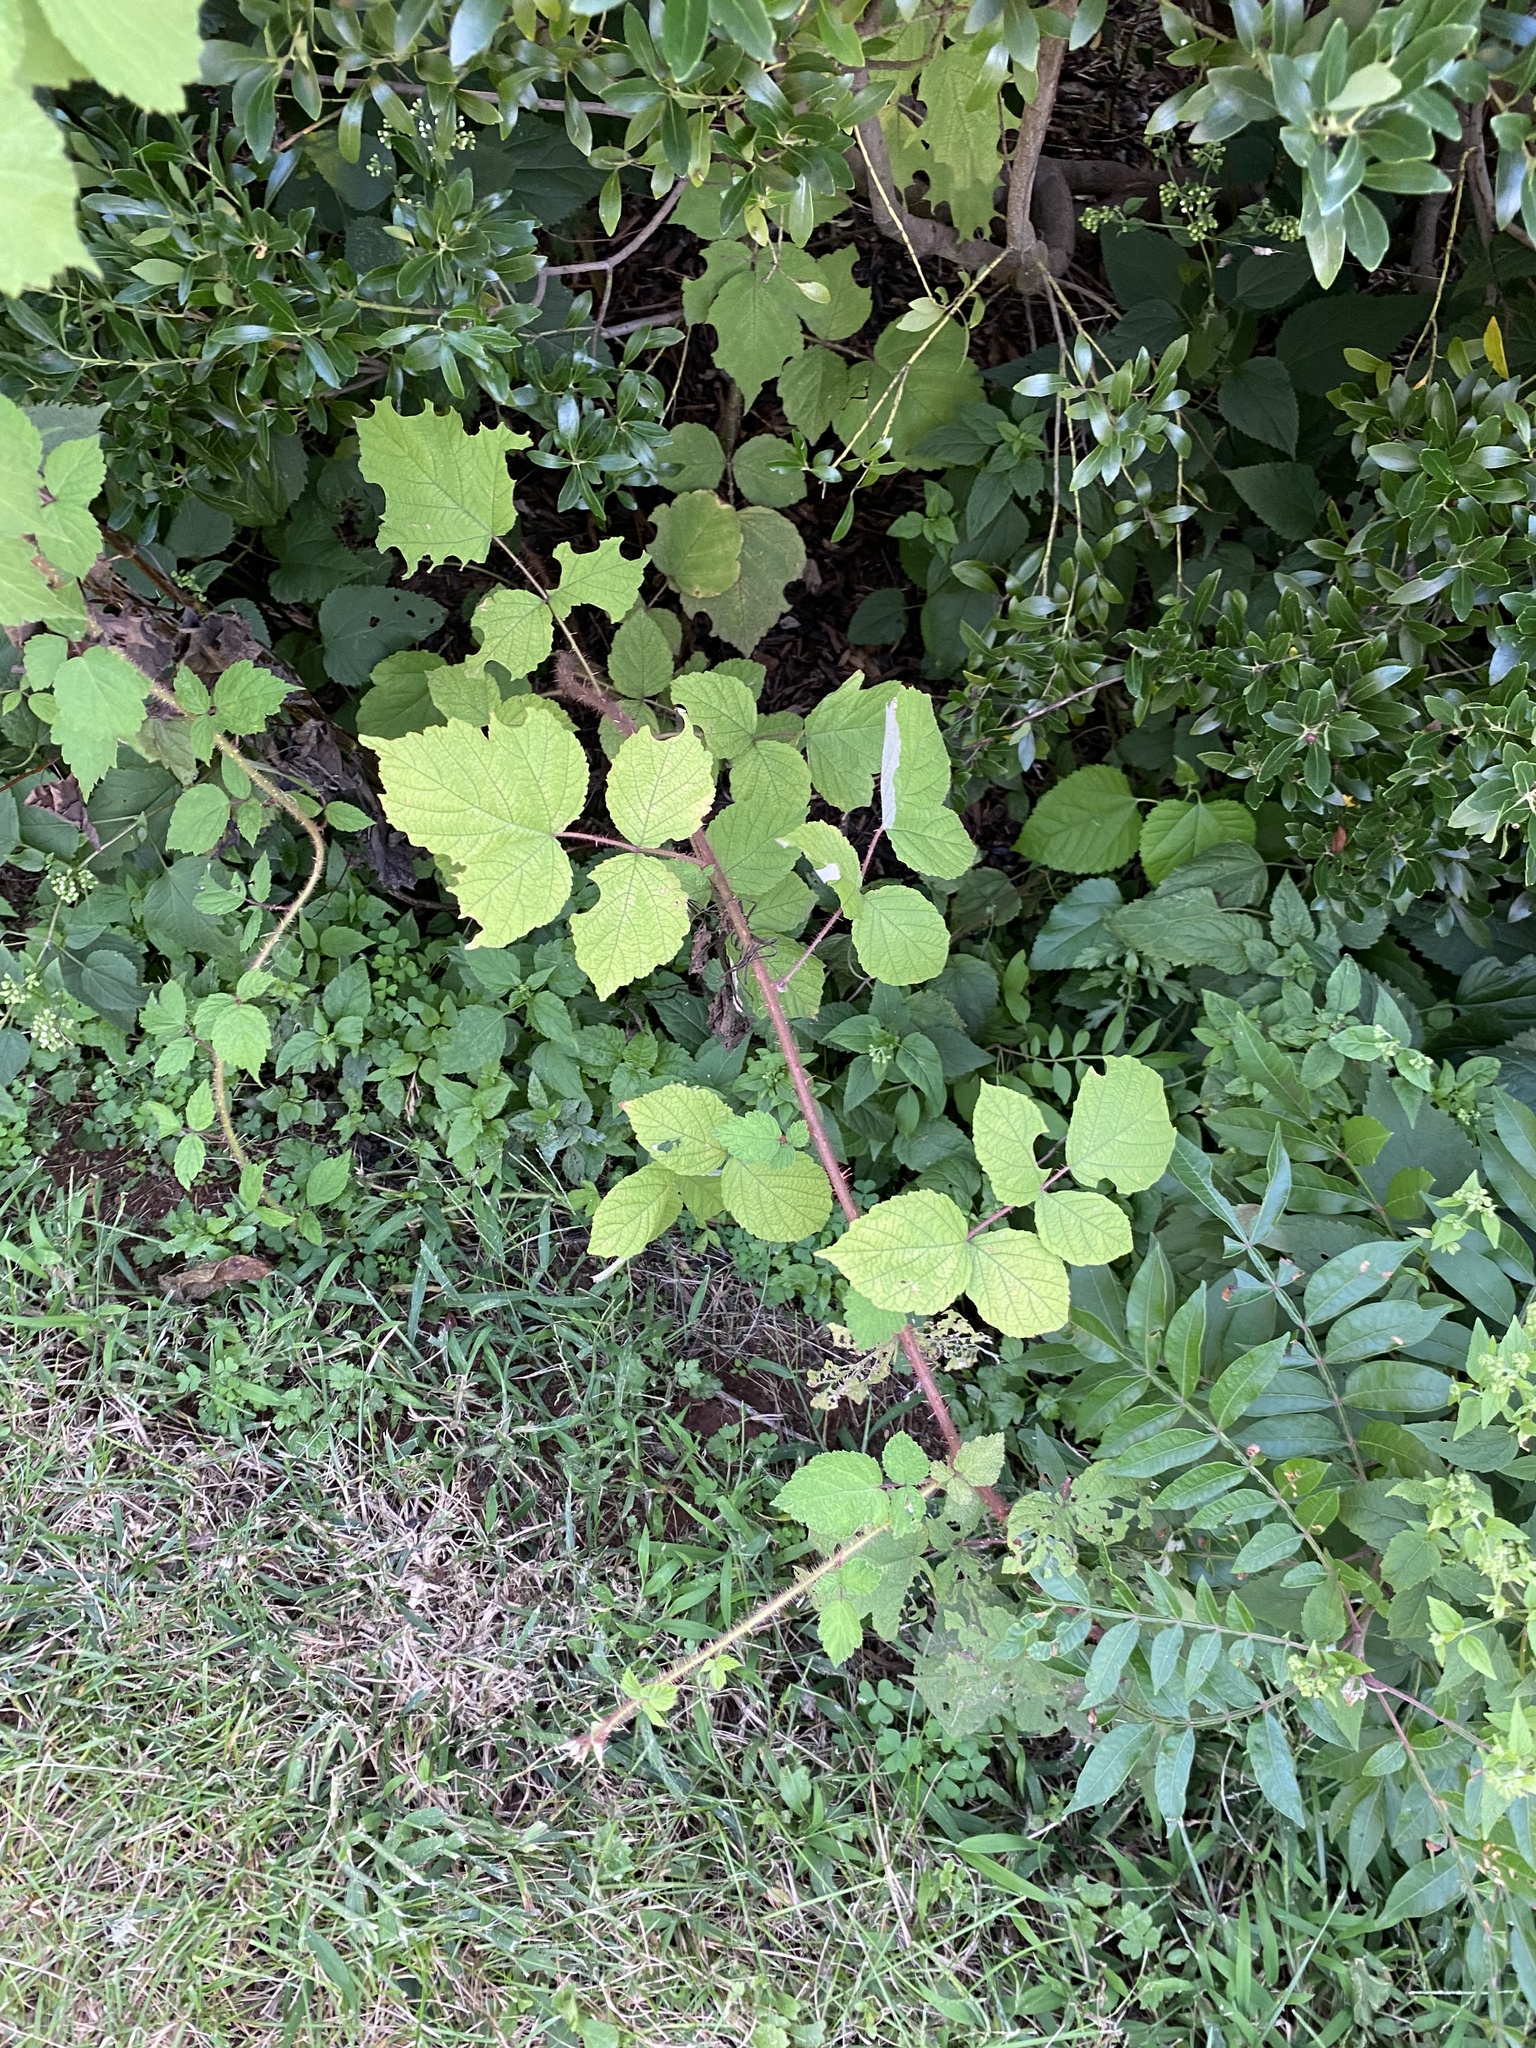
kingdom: Plantae
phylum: Tracheophyta
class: Magnoliopsida
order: Rosales
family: Rosaceae
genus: Rubus
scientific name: Rubus phoenicolasius
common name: Japanese wineberry
